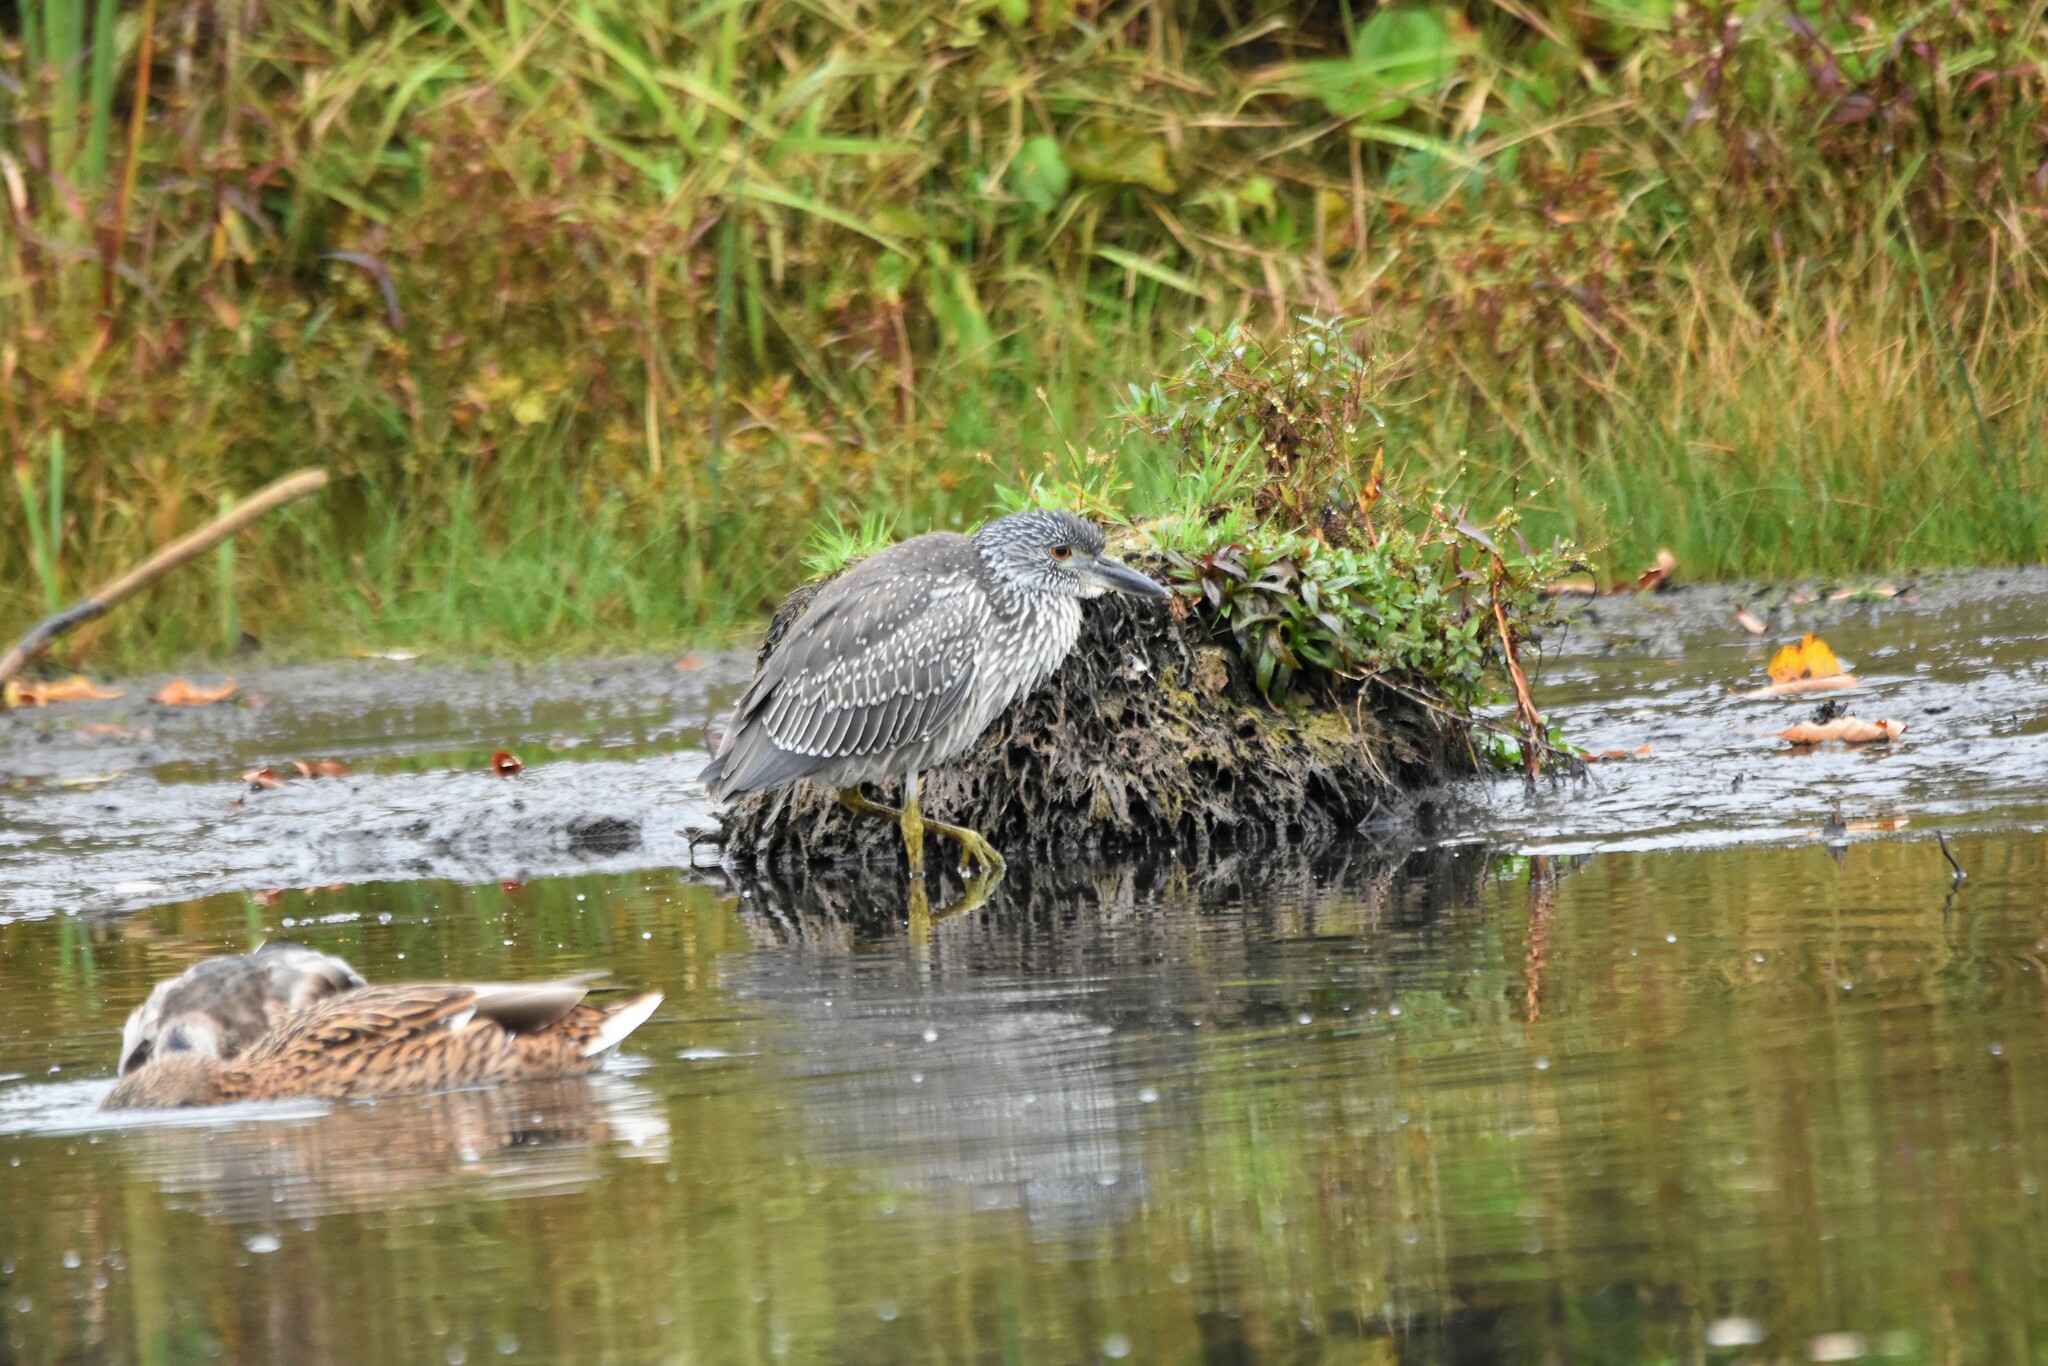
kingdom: Animalia
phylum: Chordata
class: Aves
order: Pelecaniformes
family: Ardeidae
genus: Nyctanassa
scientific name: Nyctanassa violacea
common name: Yellow-crowned night heron
